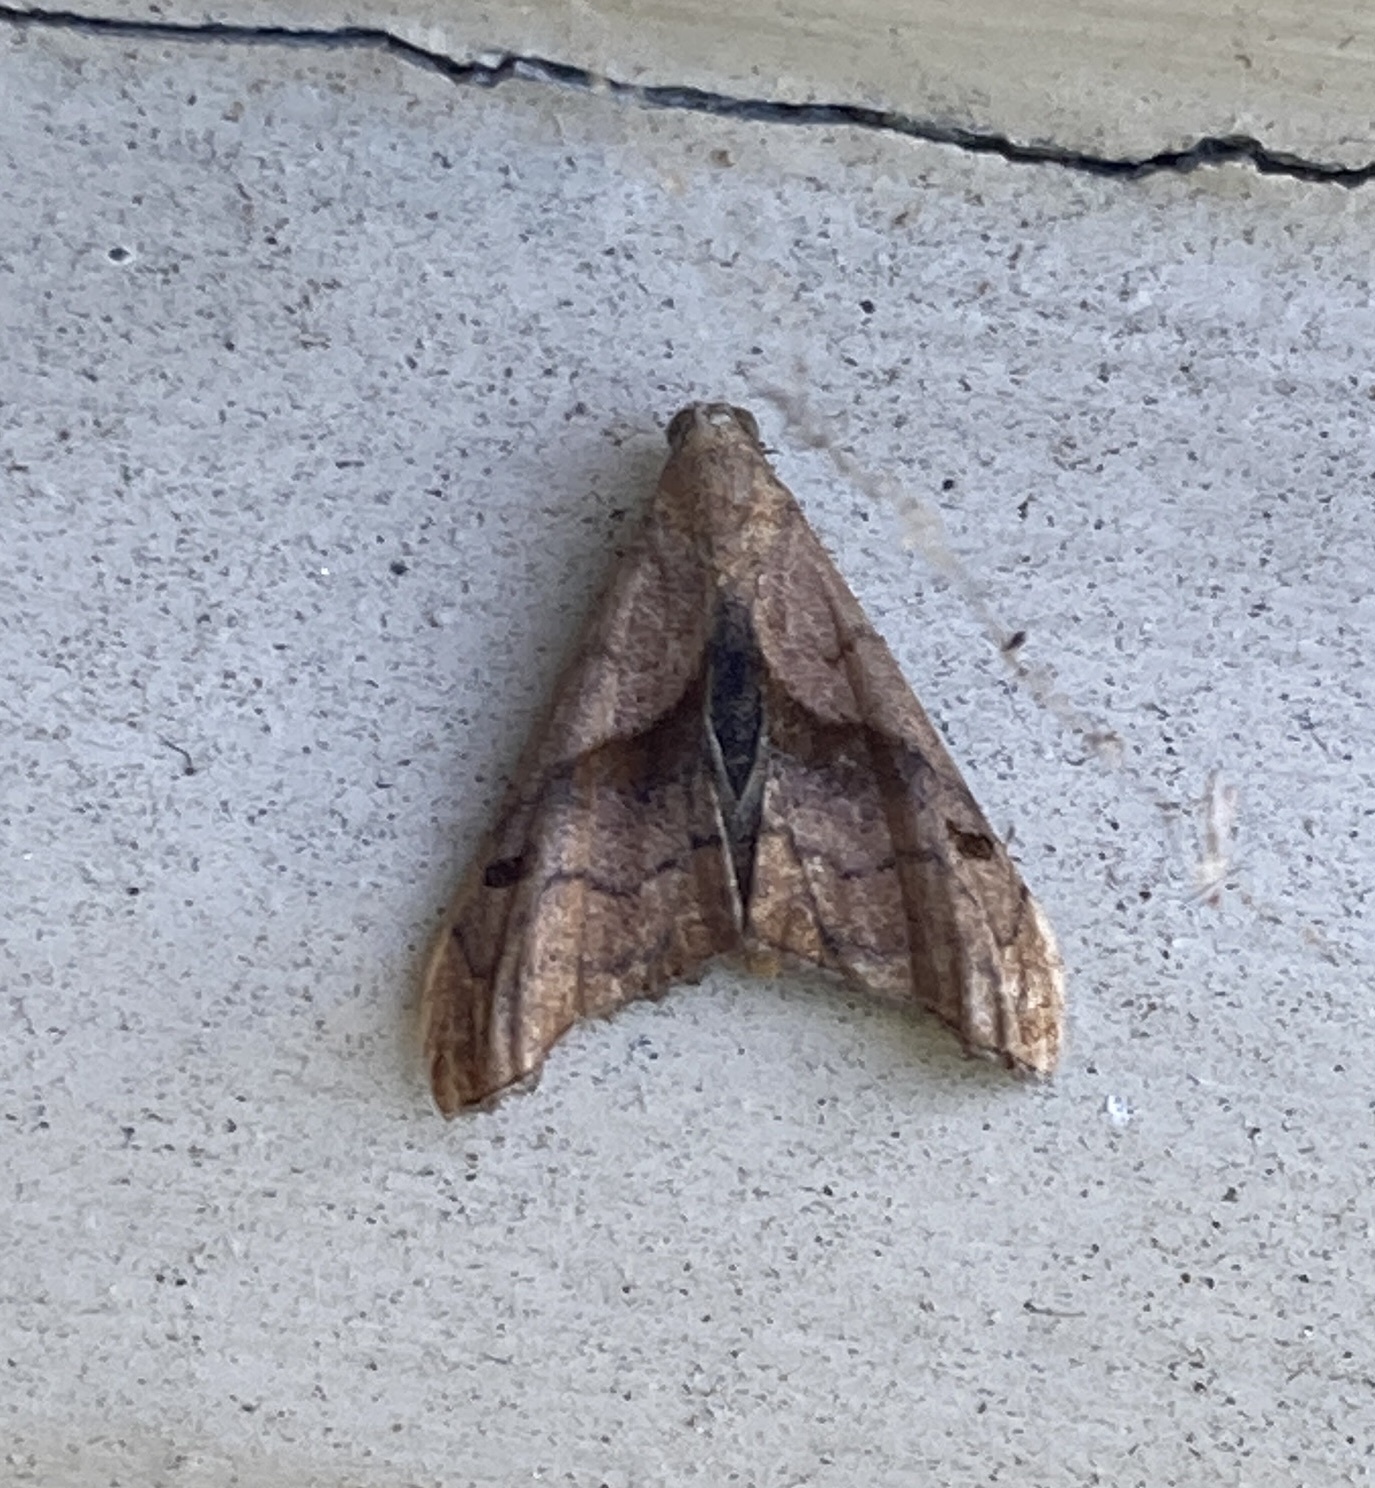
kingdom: Animalia
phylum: Arthropoda
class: Insecta
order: Lepidoptera
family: Erebidae
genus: Palthis
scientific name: Palthis angulalis
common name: Dark-spotted palthis moth
